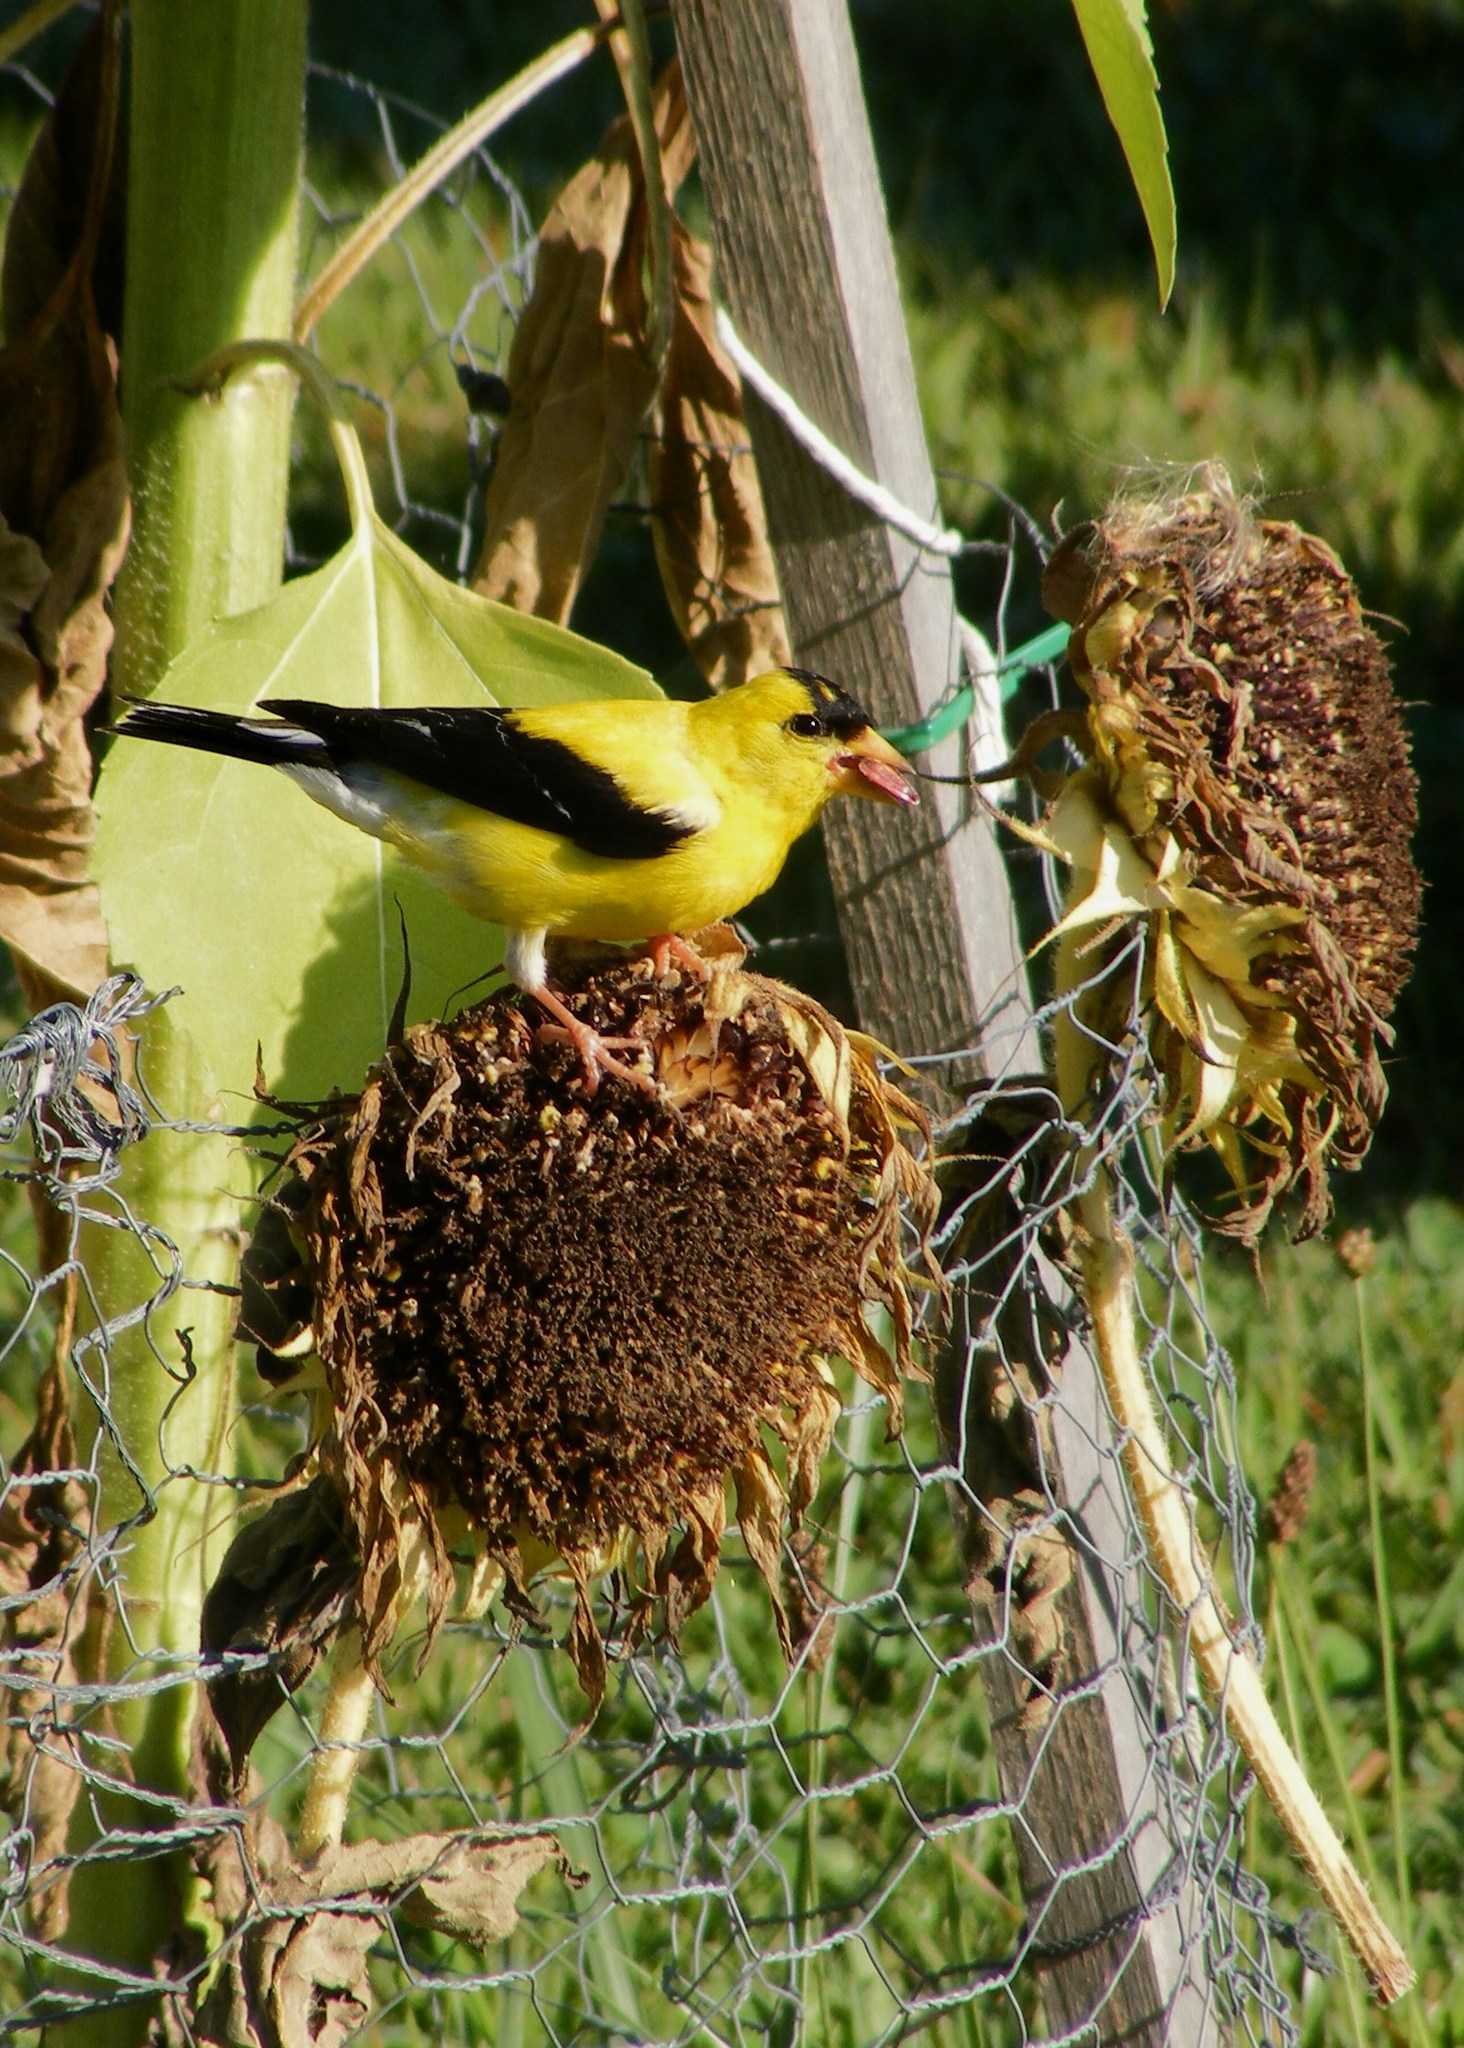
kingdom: Animalia
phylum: Chordata
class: Aves
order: Passeriformes
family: Fringillidae
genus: Spinus
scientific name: Spinus tristis
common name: American goldfinch
